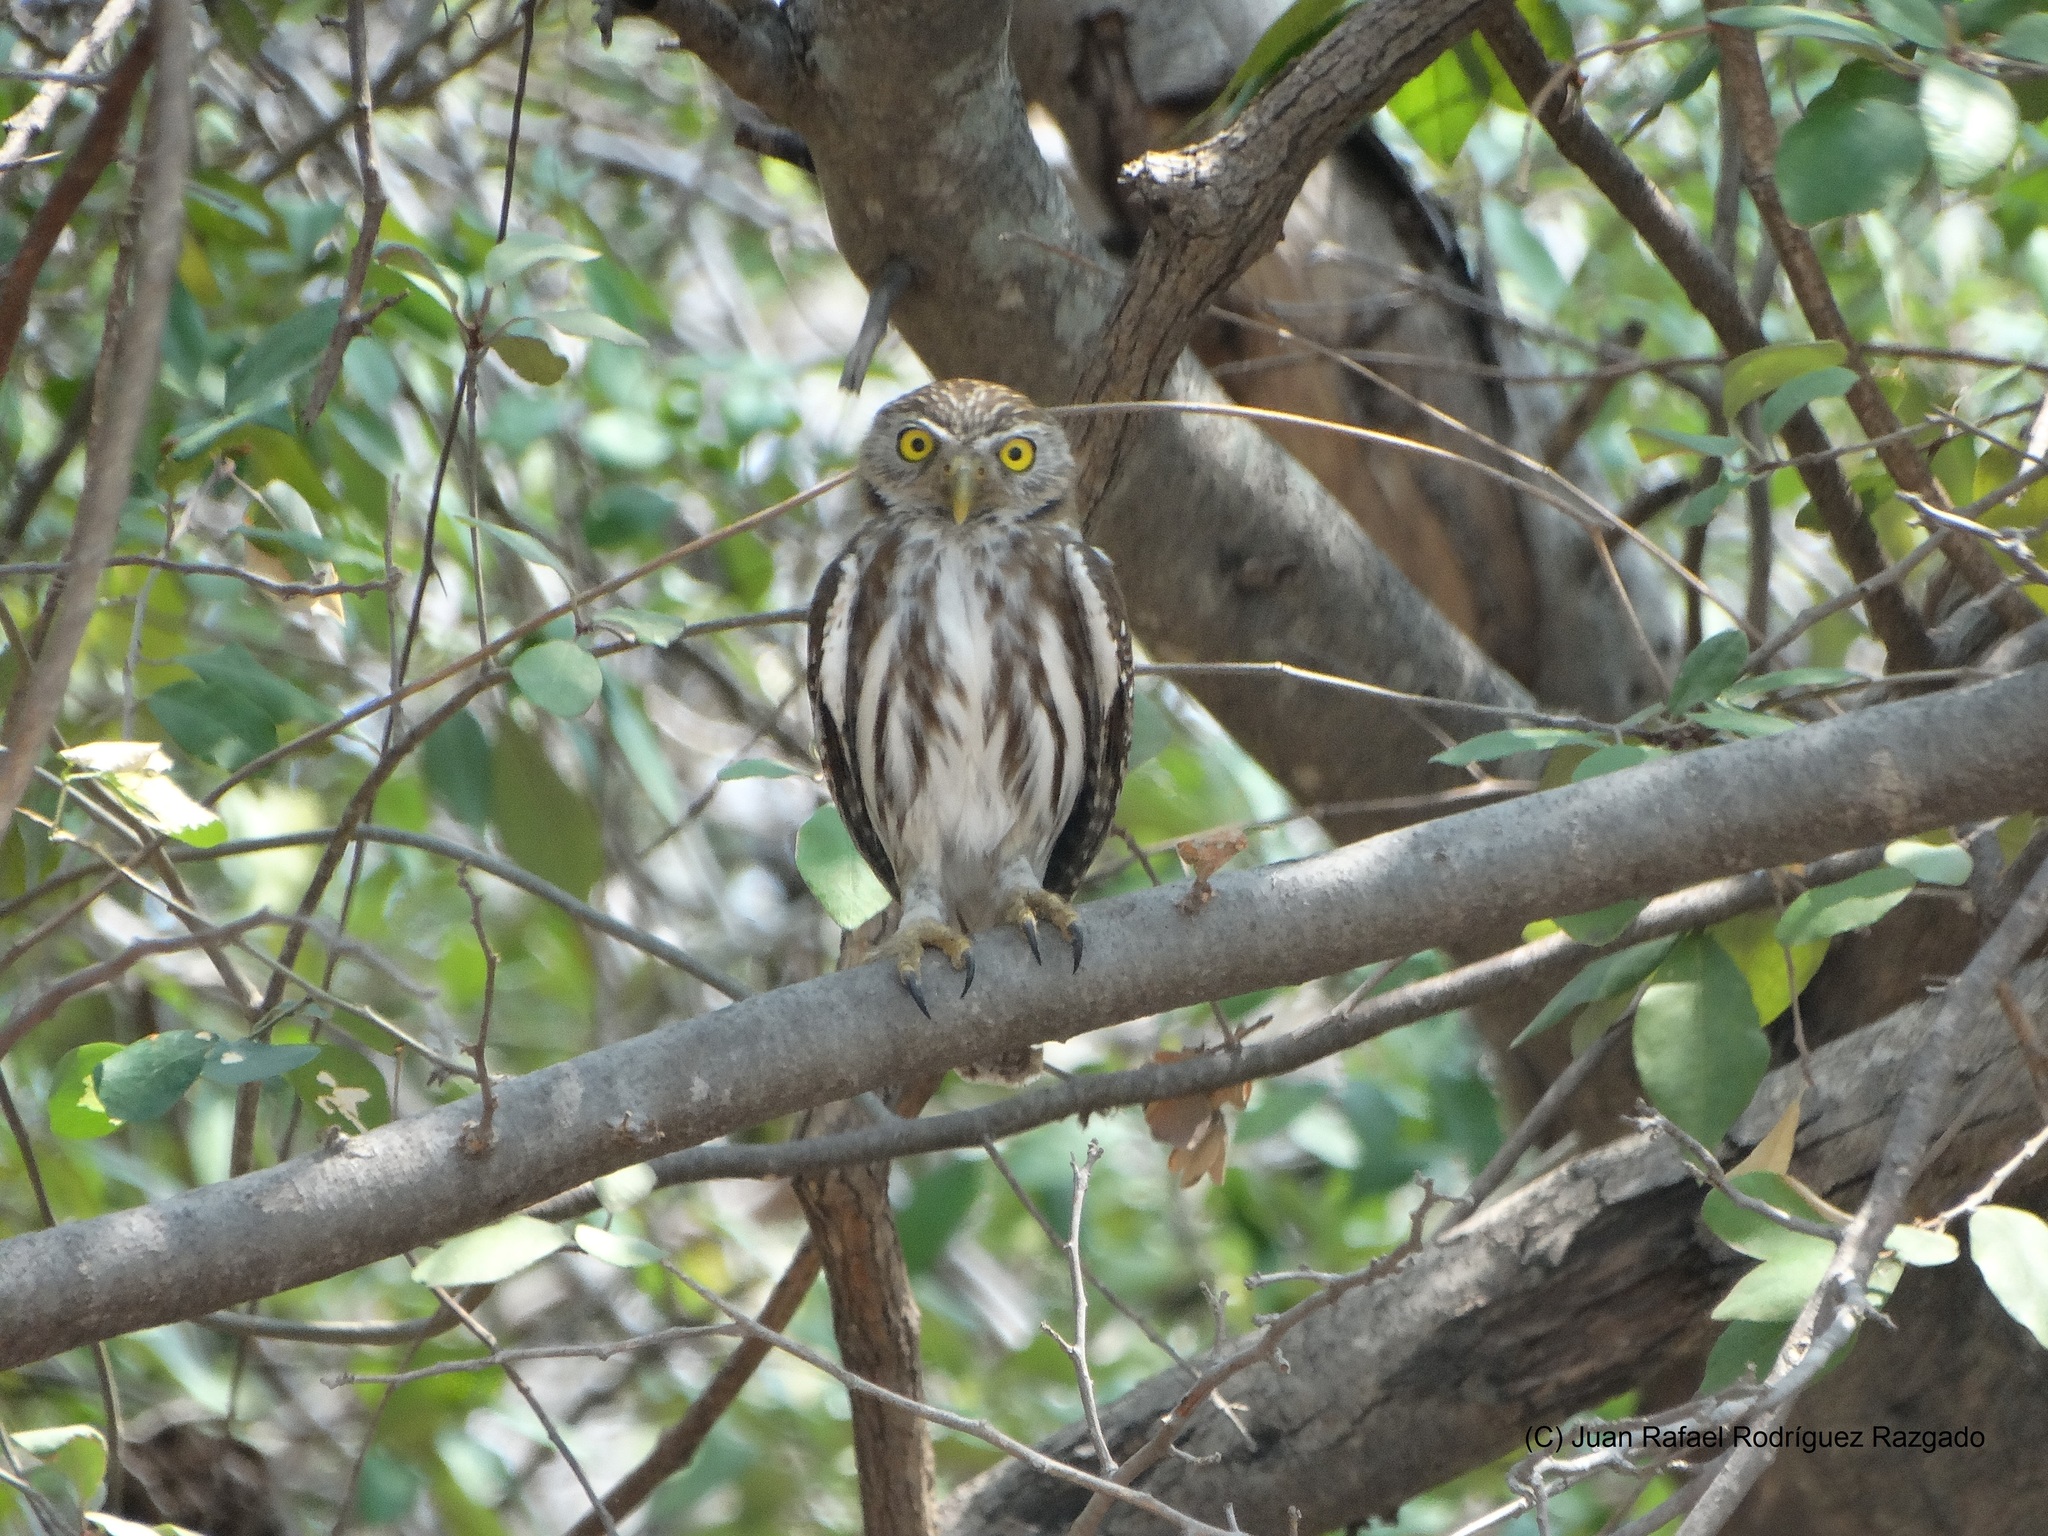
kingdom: Animalia
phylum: Chordata
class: Aves
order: Strigiformes
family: Strigidae
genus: Glaucidium
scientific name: Glaucidium brasilianum
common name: Ferruginous pygmy-owl
